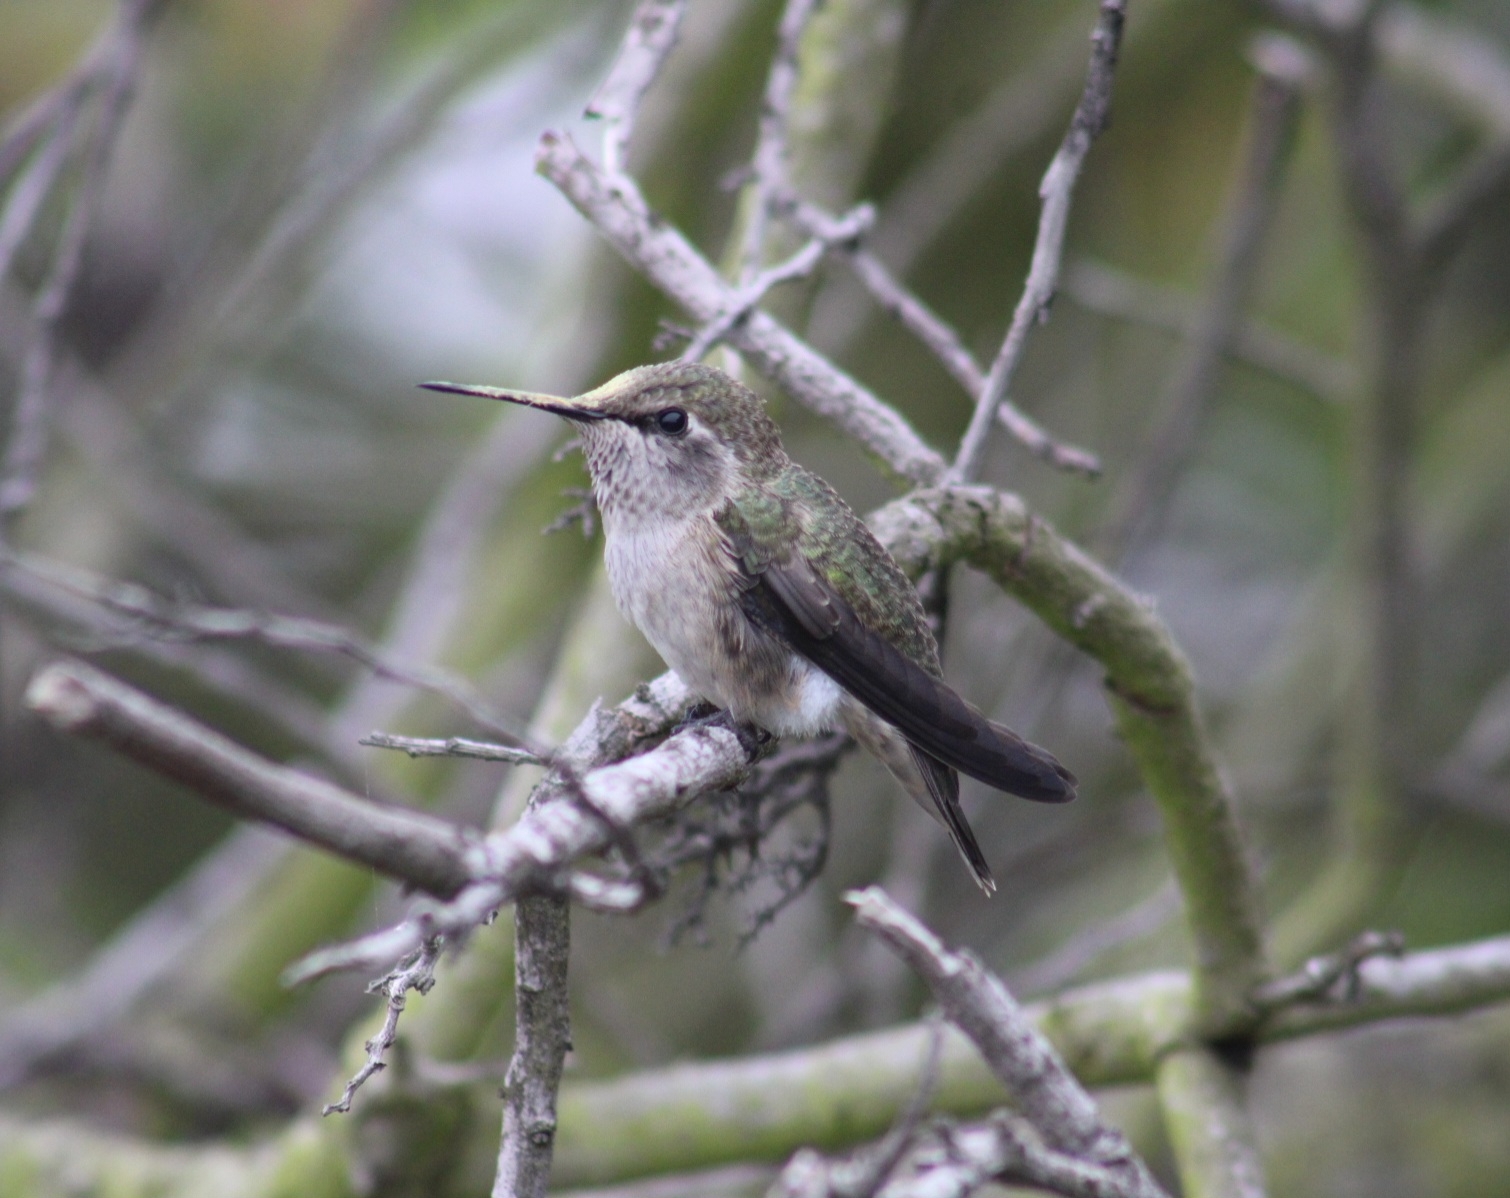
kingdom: Animalia
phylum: Chordata
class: Aves
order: Apodiformes
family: Trochilidae
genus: Calypte
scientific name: Calypte anna
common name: Anna's hummingbird
